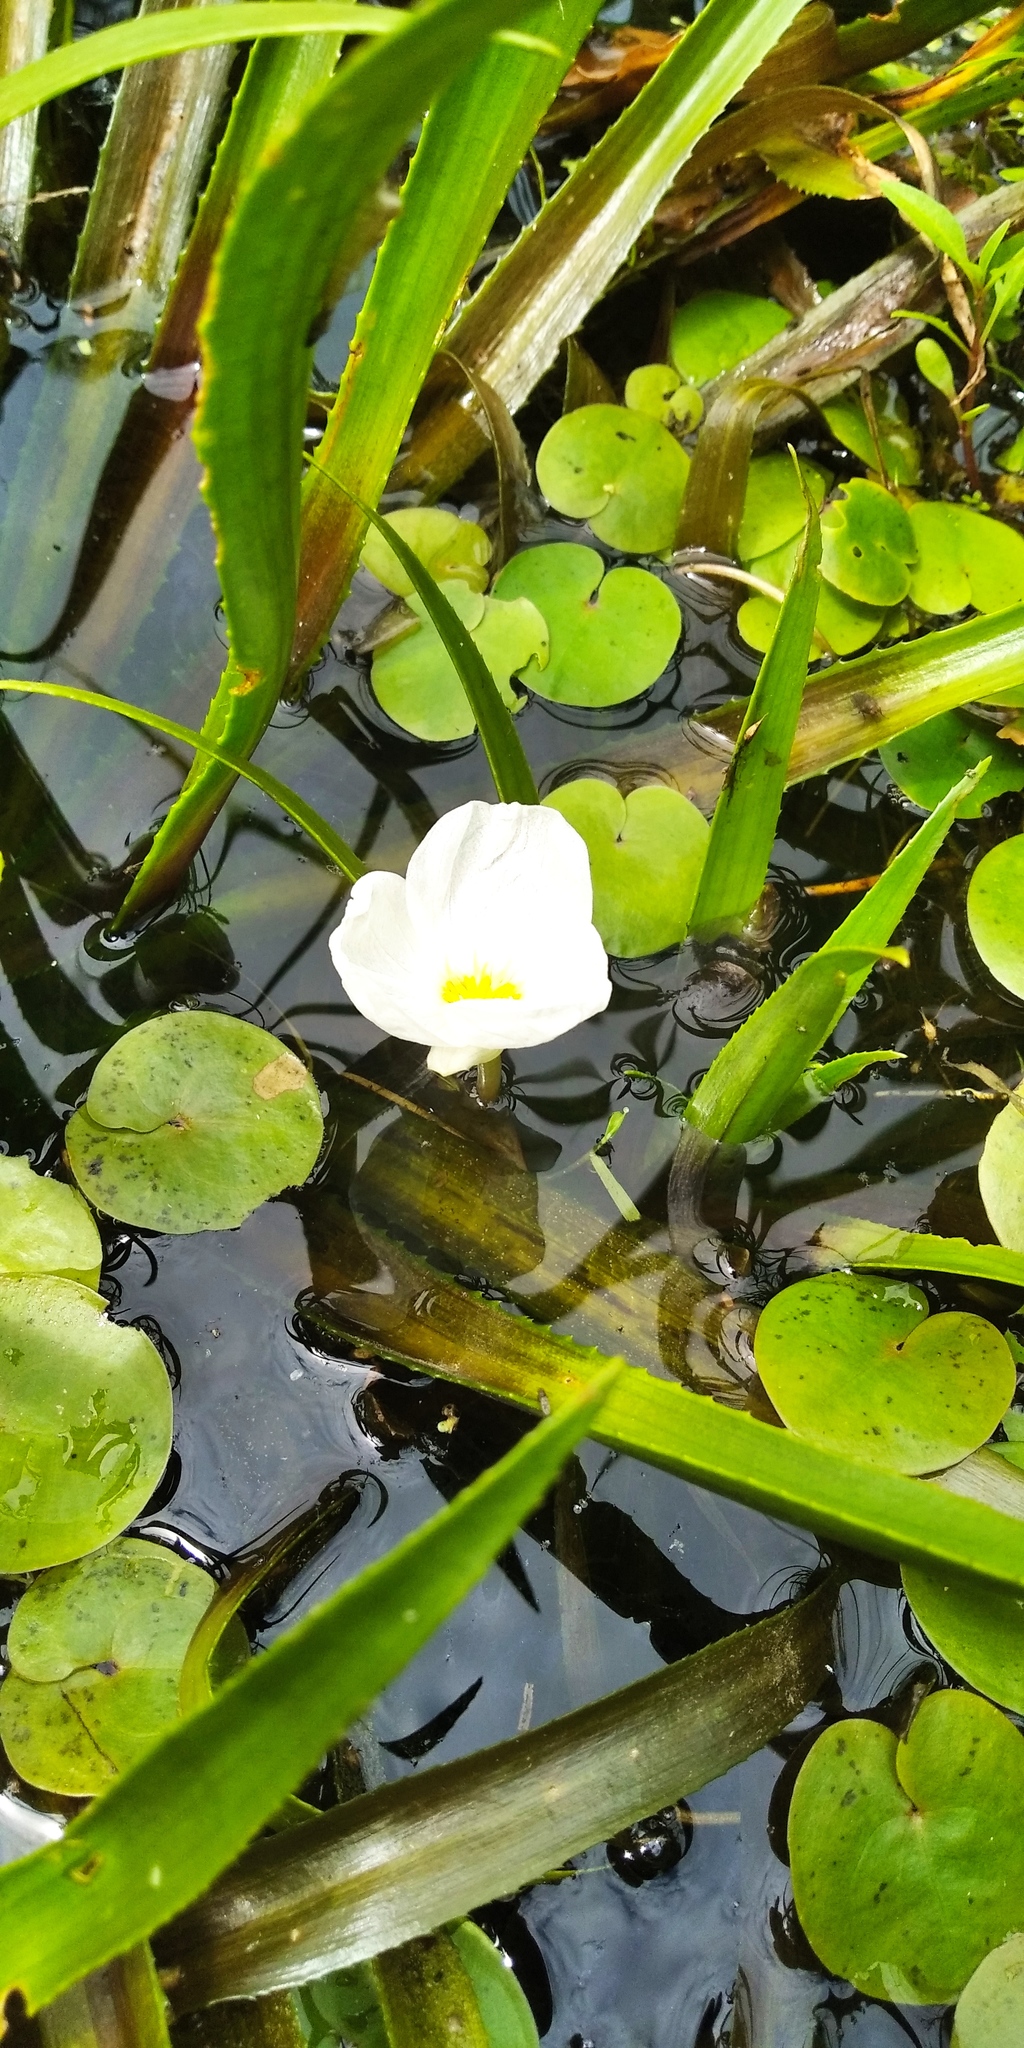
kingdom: Plantae
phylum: Tracheophyta
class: Liliopsida
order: Alismatales
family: Hydrocharitaceae
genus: Stratiotes
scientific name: Stratiotes aloides
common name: Water-soldier
